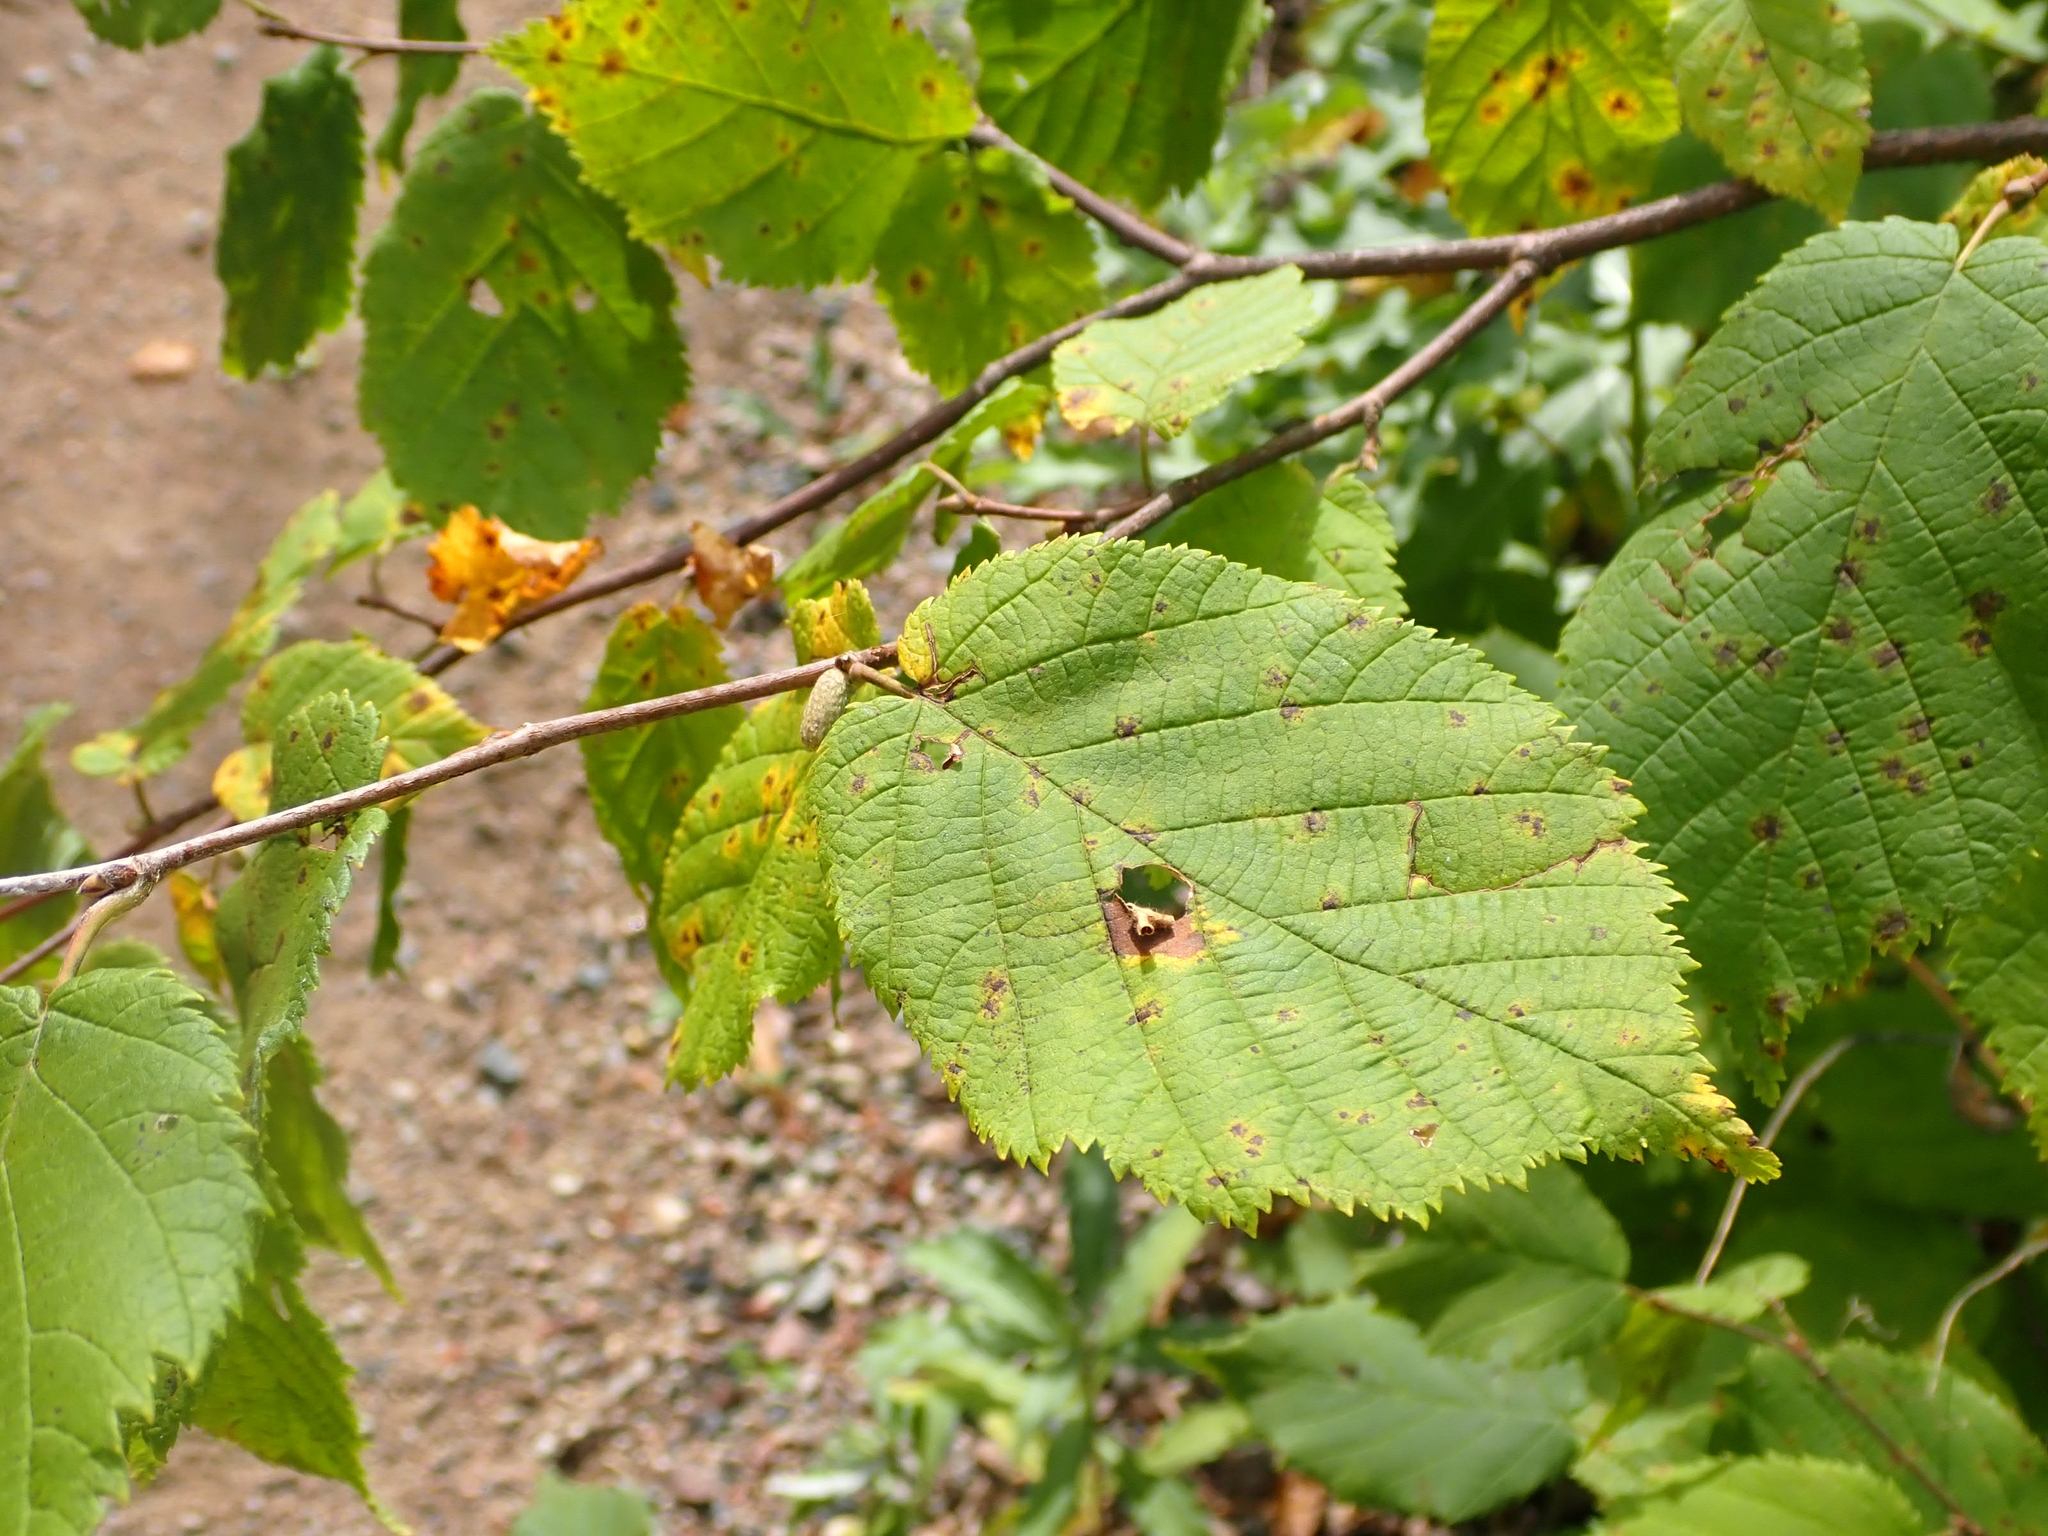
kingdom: Plantae
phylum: Tracheophyta
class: Magnoliopsida
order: Fagales
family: Betulaceae
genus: Corylus
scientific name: Corylus cornuta
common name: Beaked hazel
